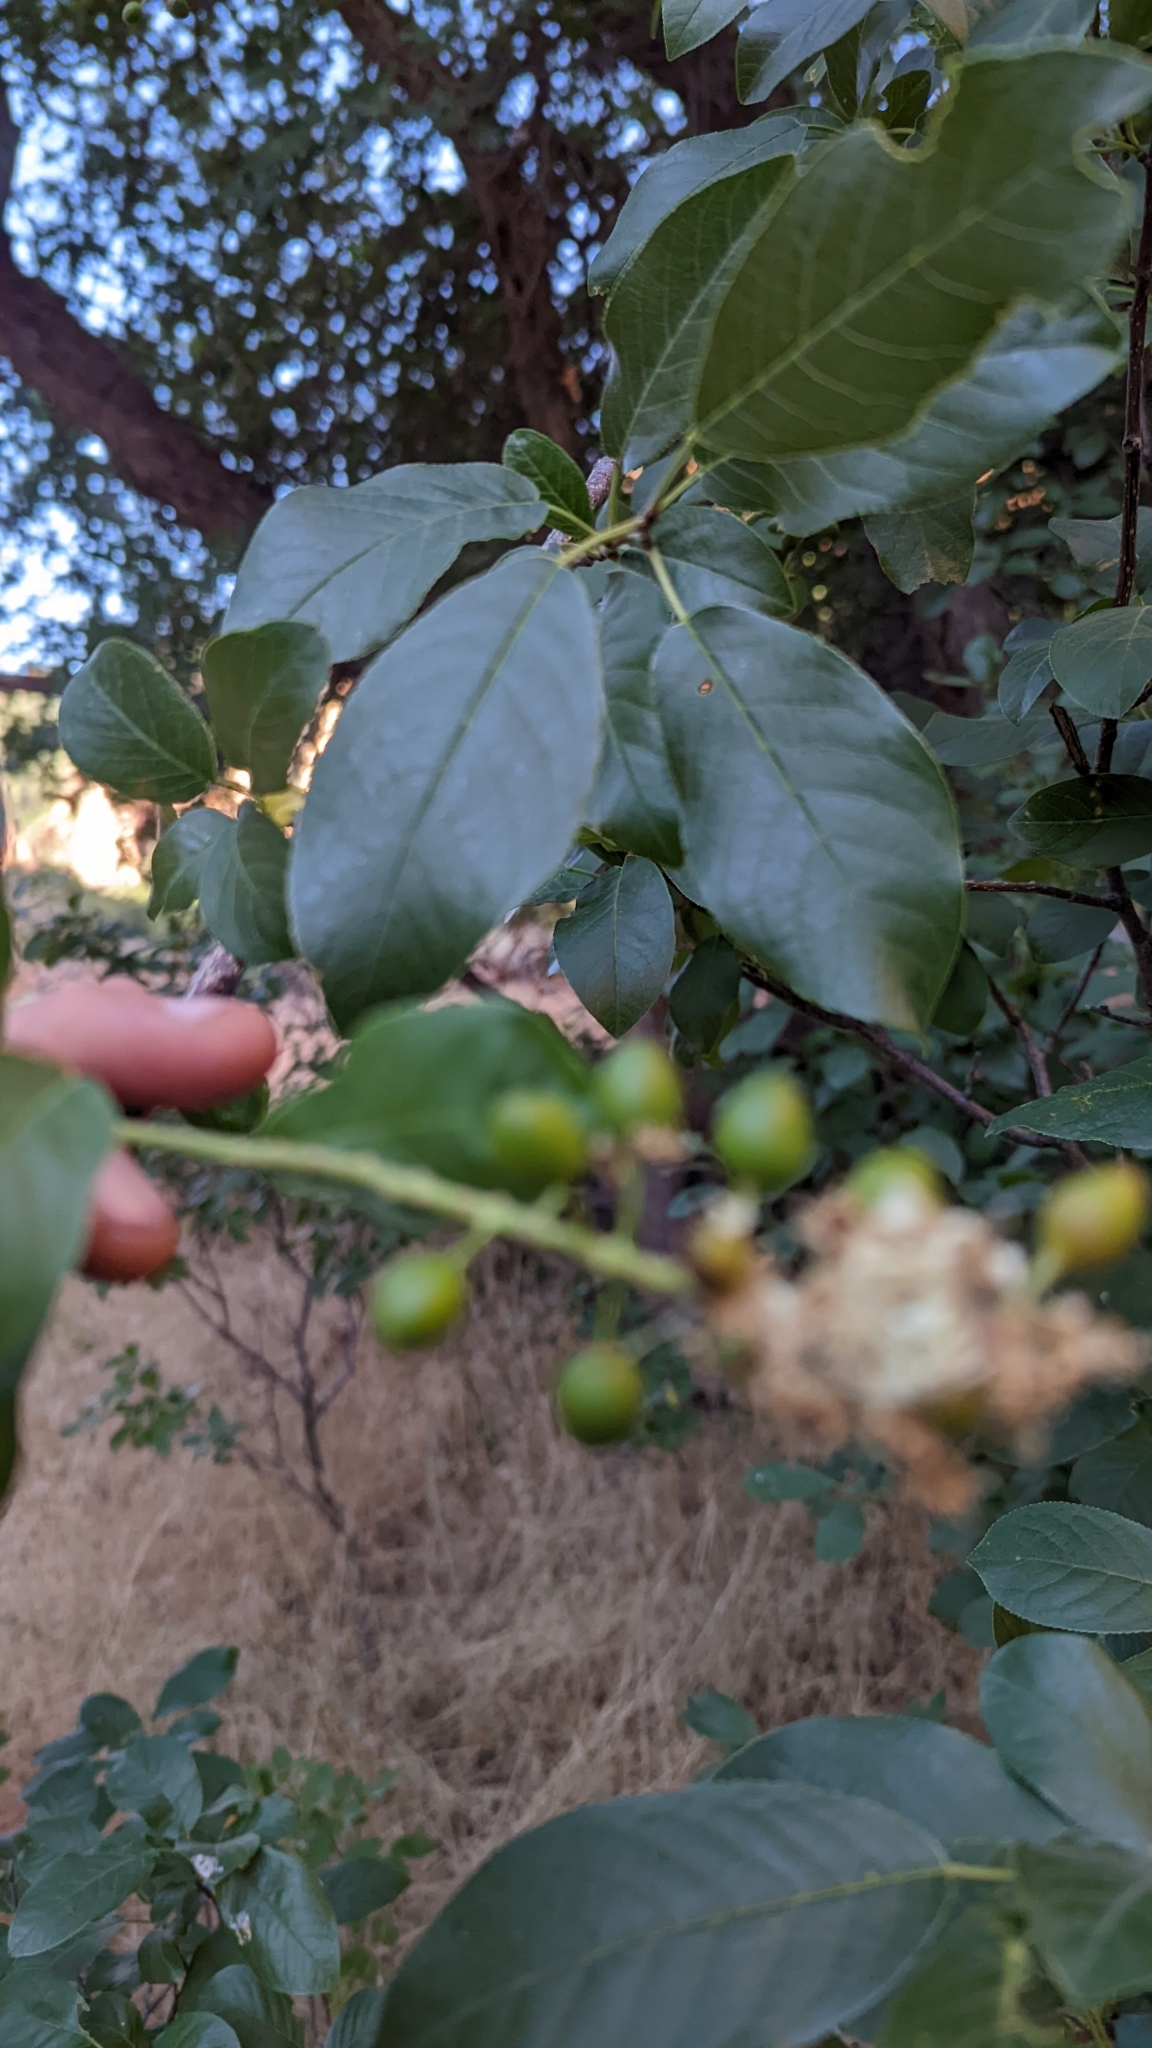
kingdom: Plantae
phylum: Tracheophyta
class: Magnoliopsida
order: Rosales
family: Rosaceae
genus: Prunus
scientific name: Prunus virginiana
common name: Chokecherry
